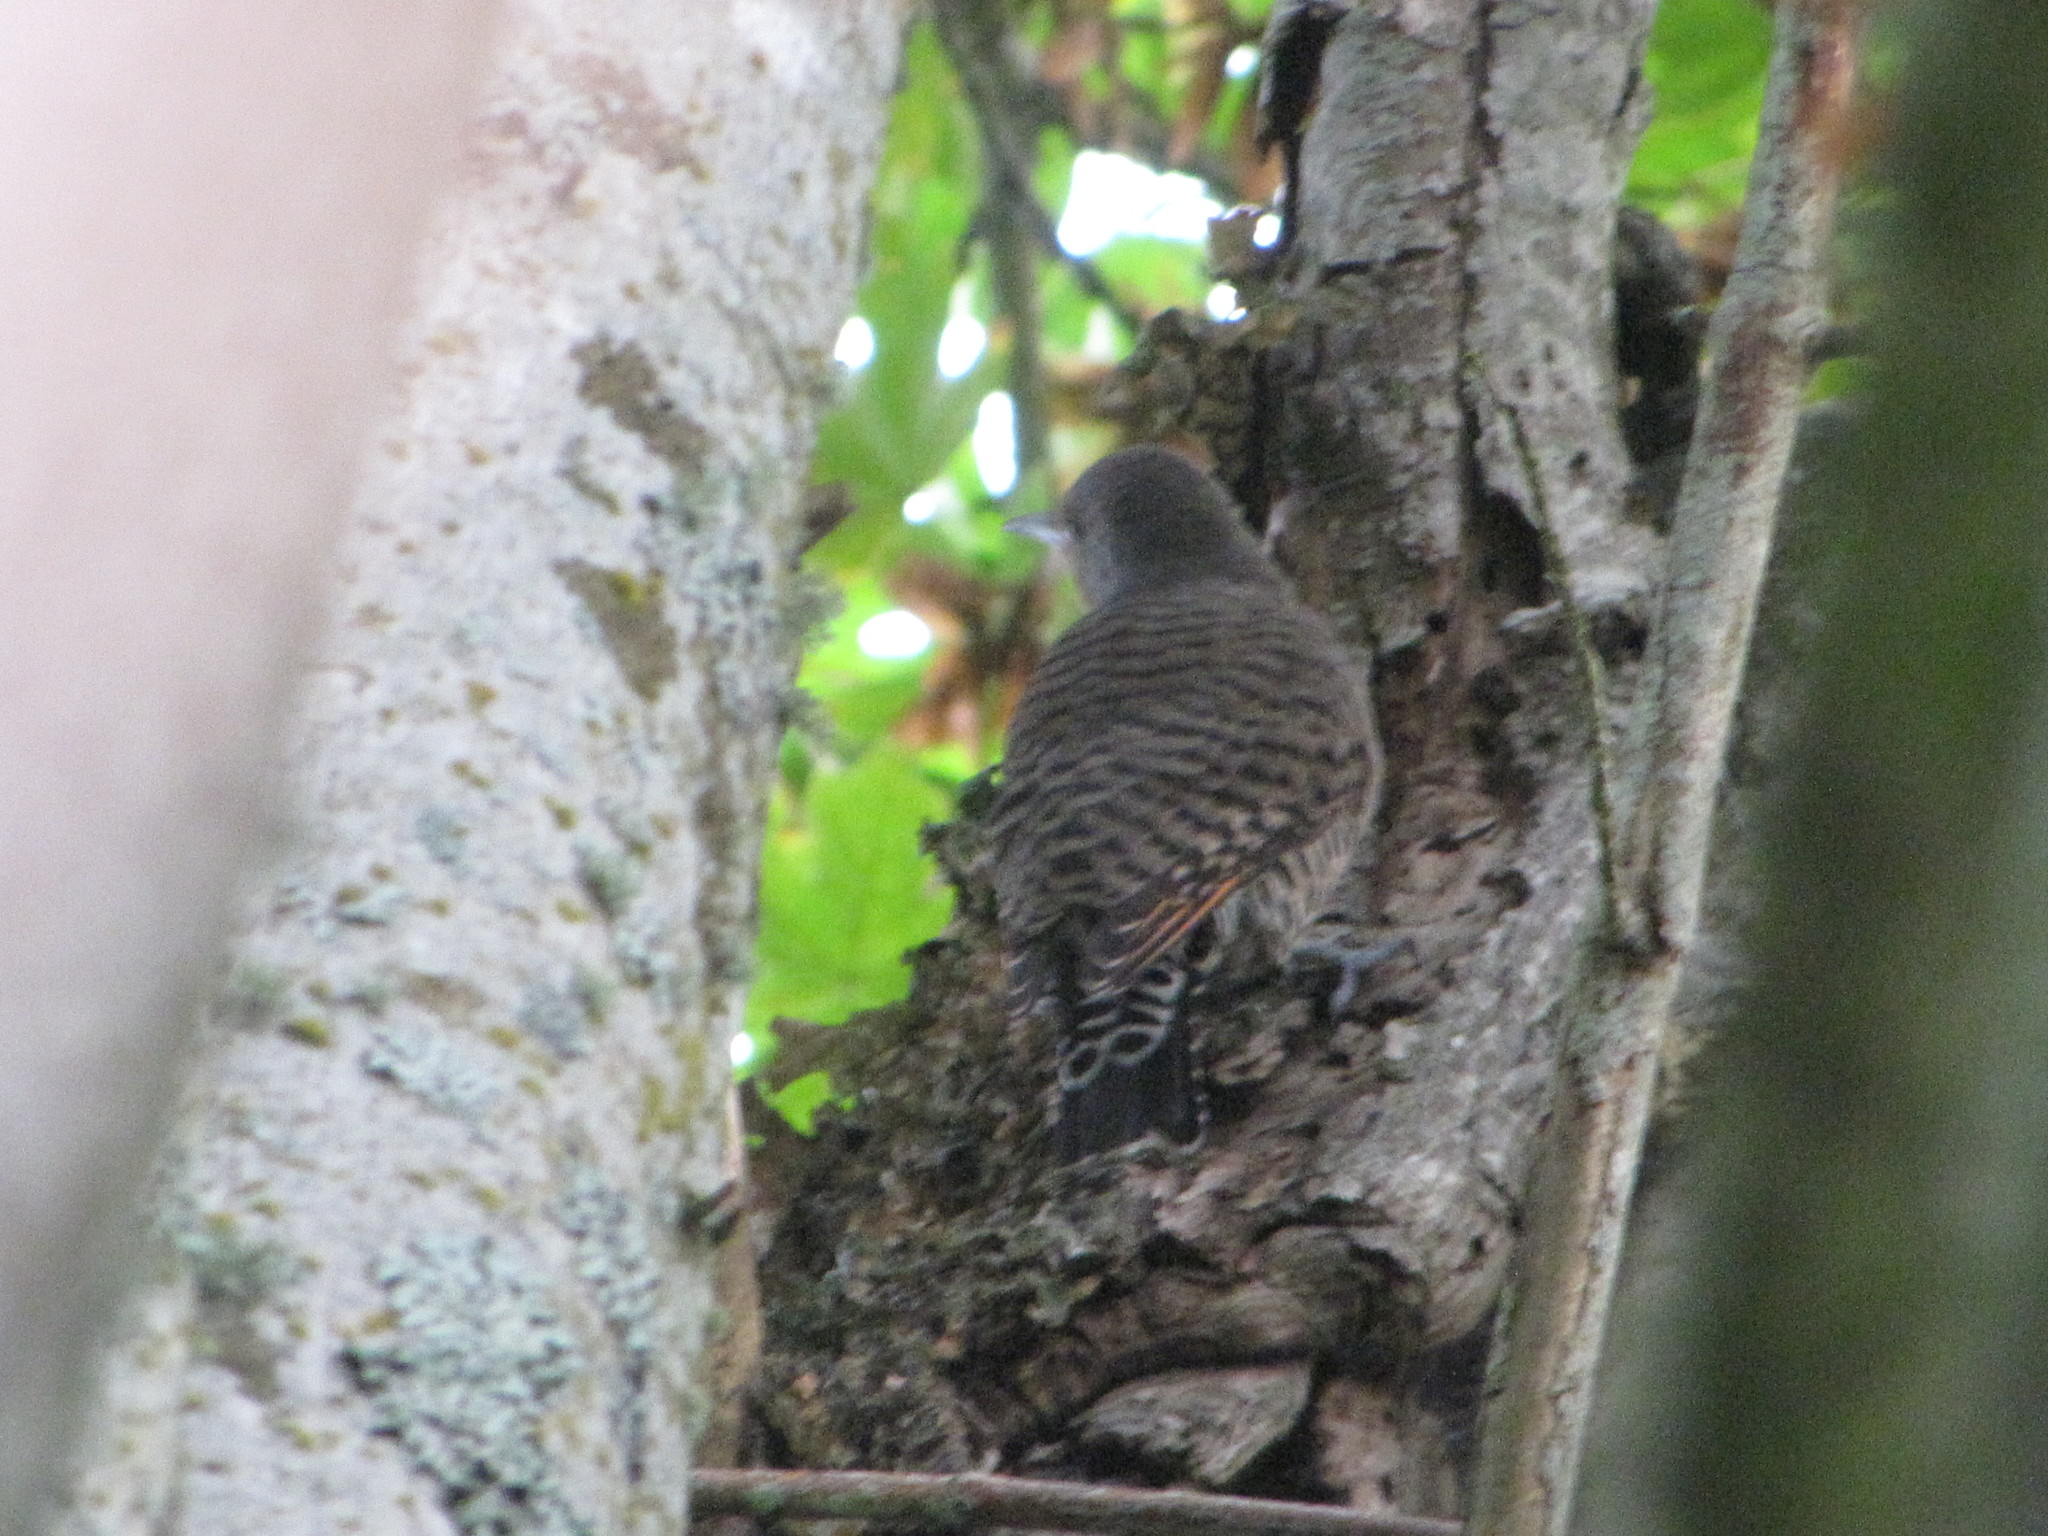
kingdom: Animalia
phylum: Chordata
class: Aves
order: Piciformes
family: Picidae
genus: Colaptes
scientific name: Colaptes auratus
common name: Northern flicker
